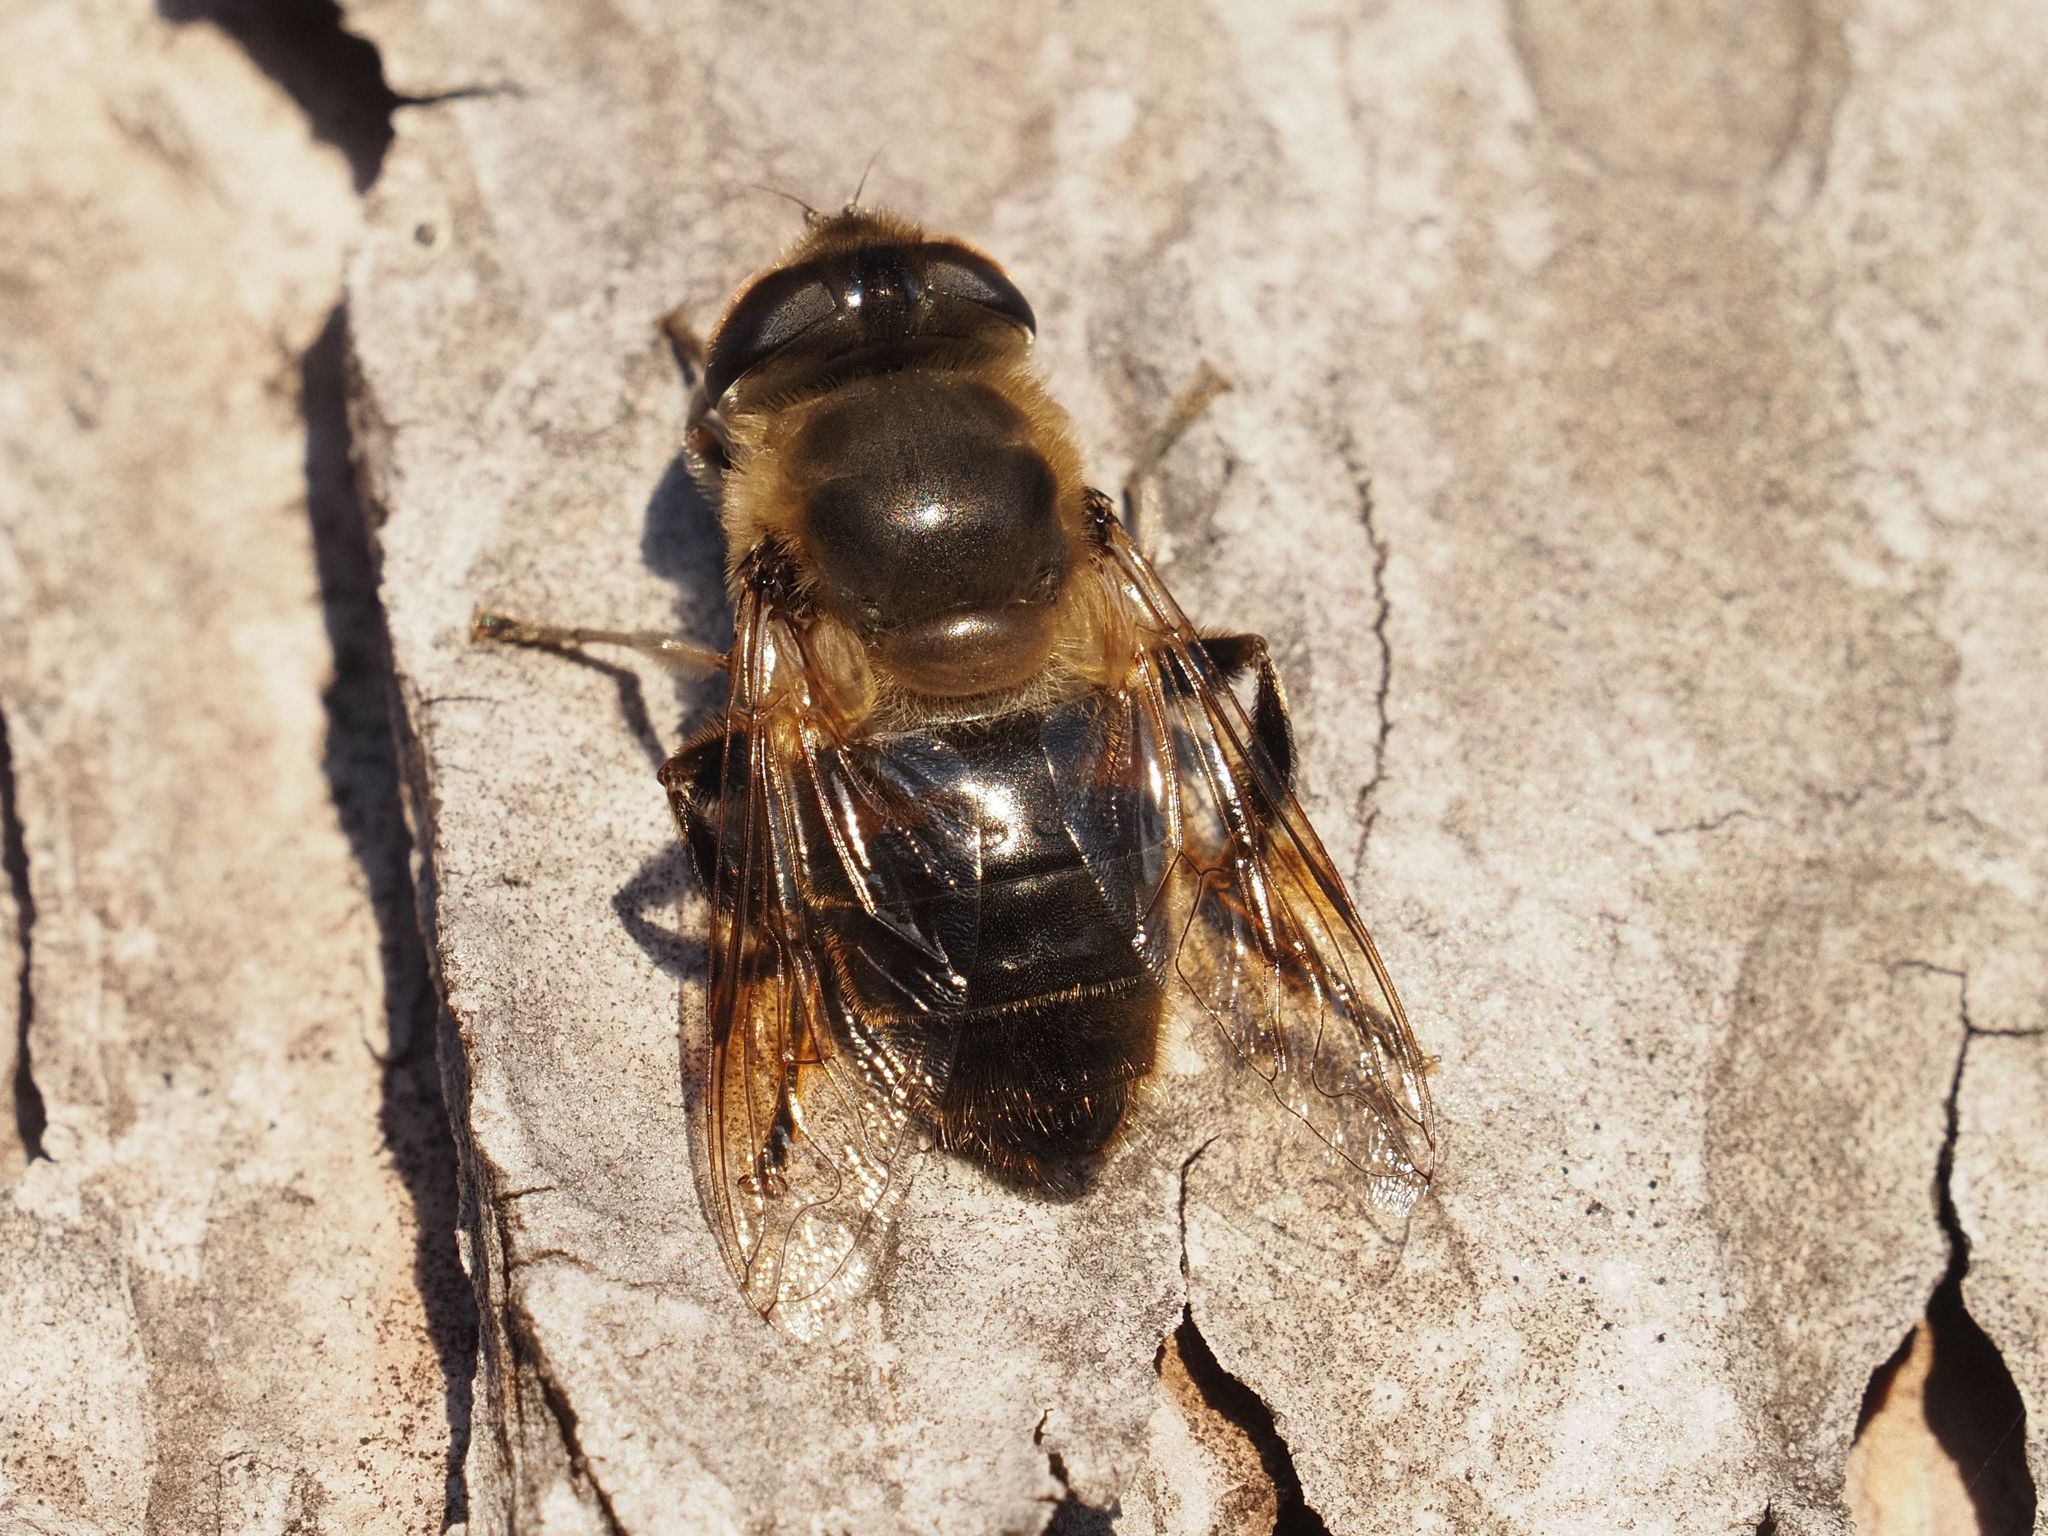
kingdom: Animalia
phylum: Arthropoda
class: Insecta
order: Diptera
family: Syrphidae
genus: Eristalis
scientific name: Eristalis tenax
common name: Drone fly
